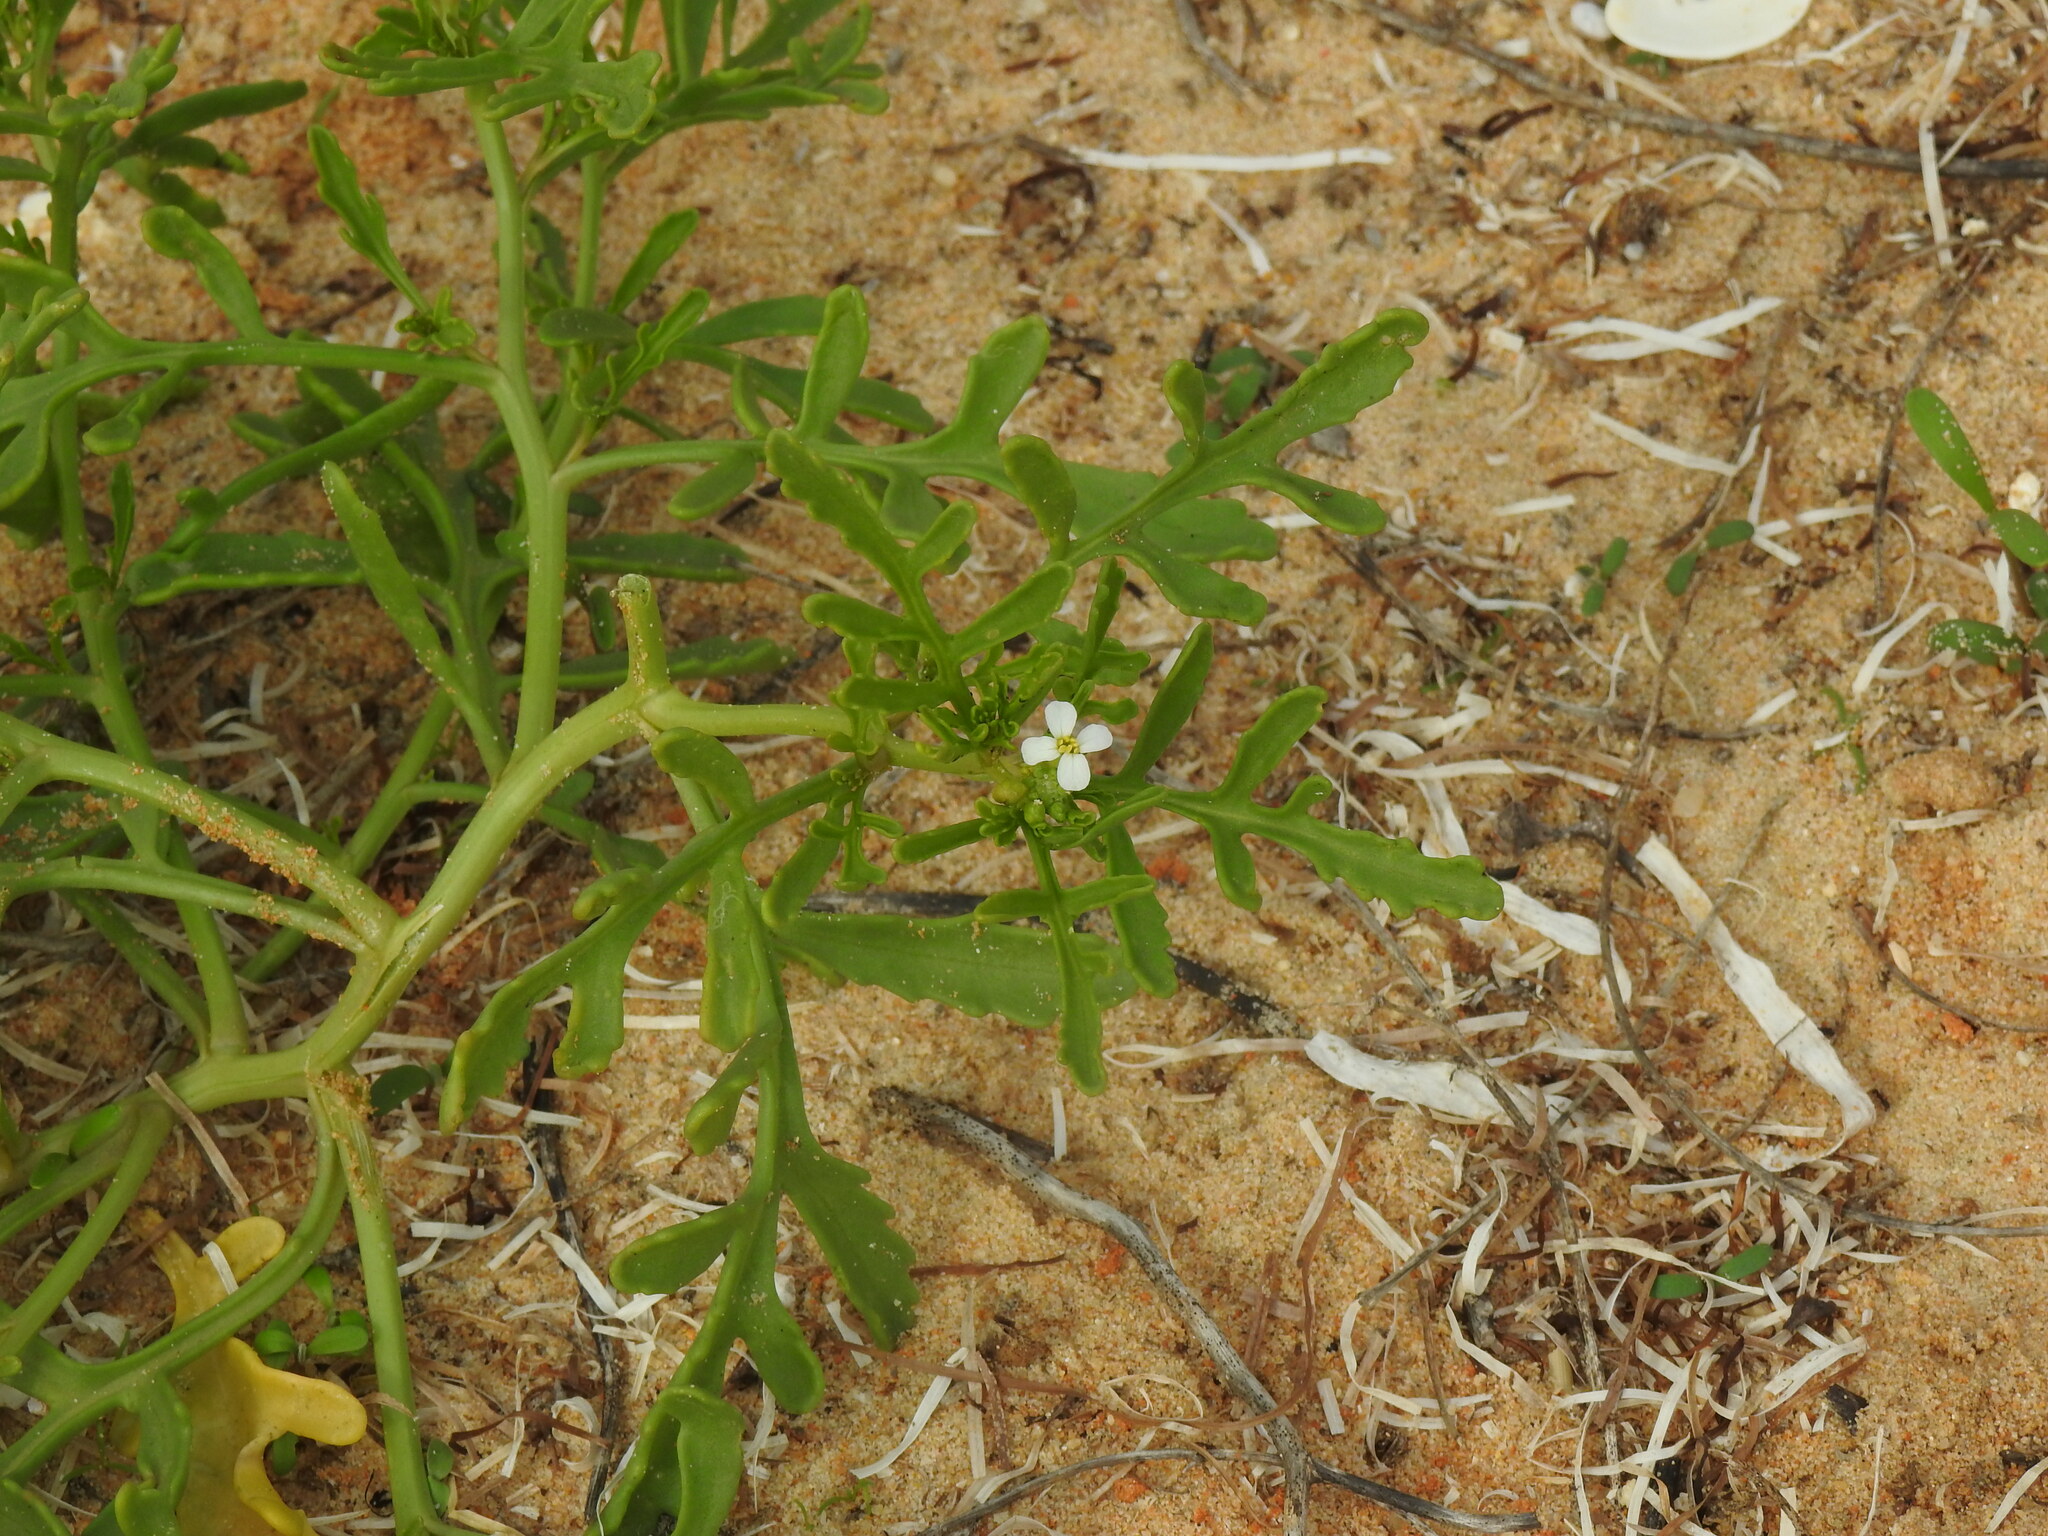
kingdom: Plantae
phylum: Tracheophyta
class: Magnoliopsida
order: Brassicales
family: Brassicaceae
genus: Cakile
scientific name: Cakile maritima
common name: Sea rocket
